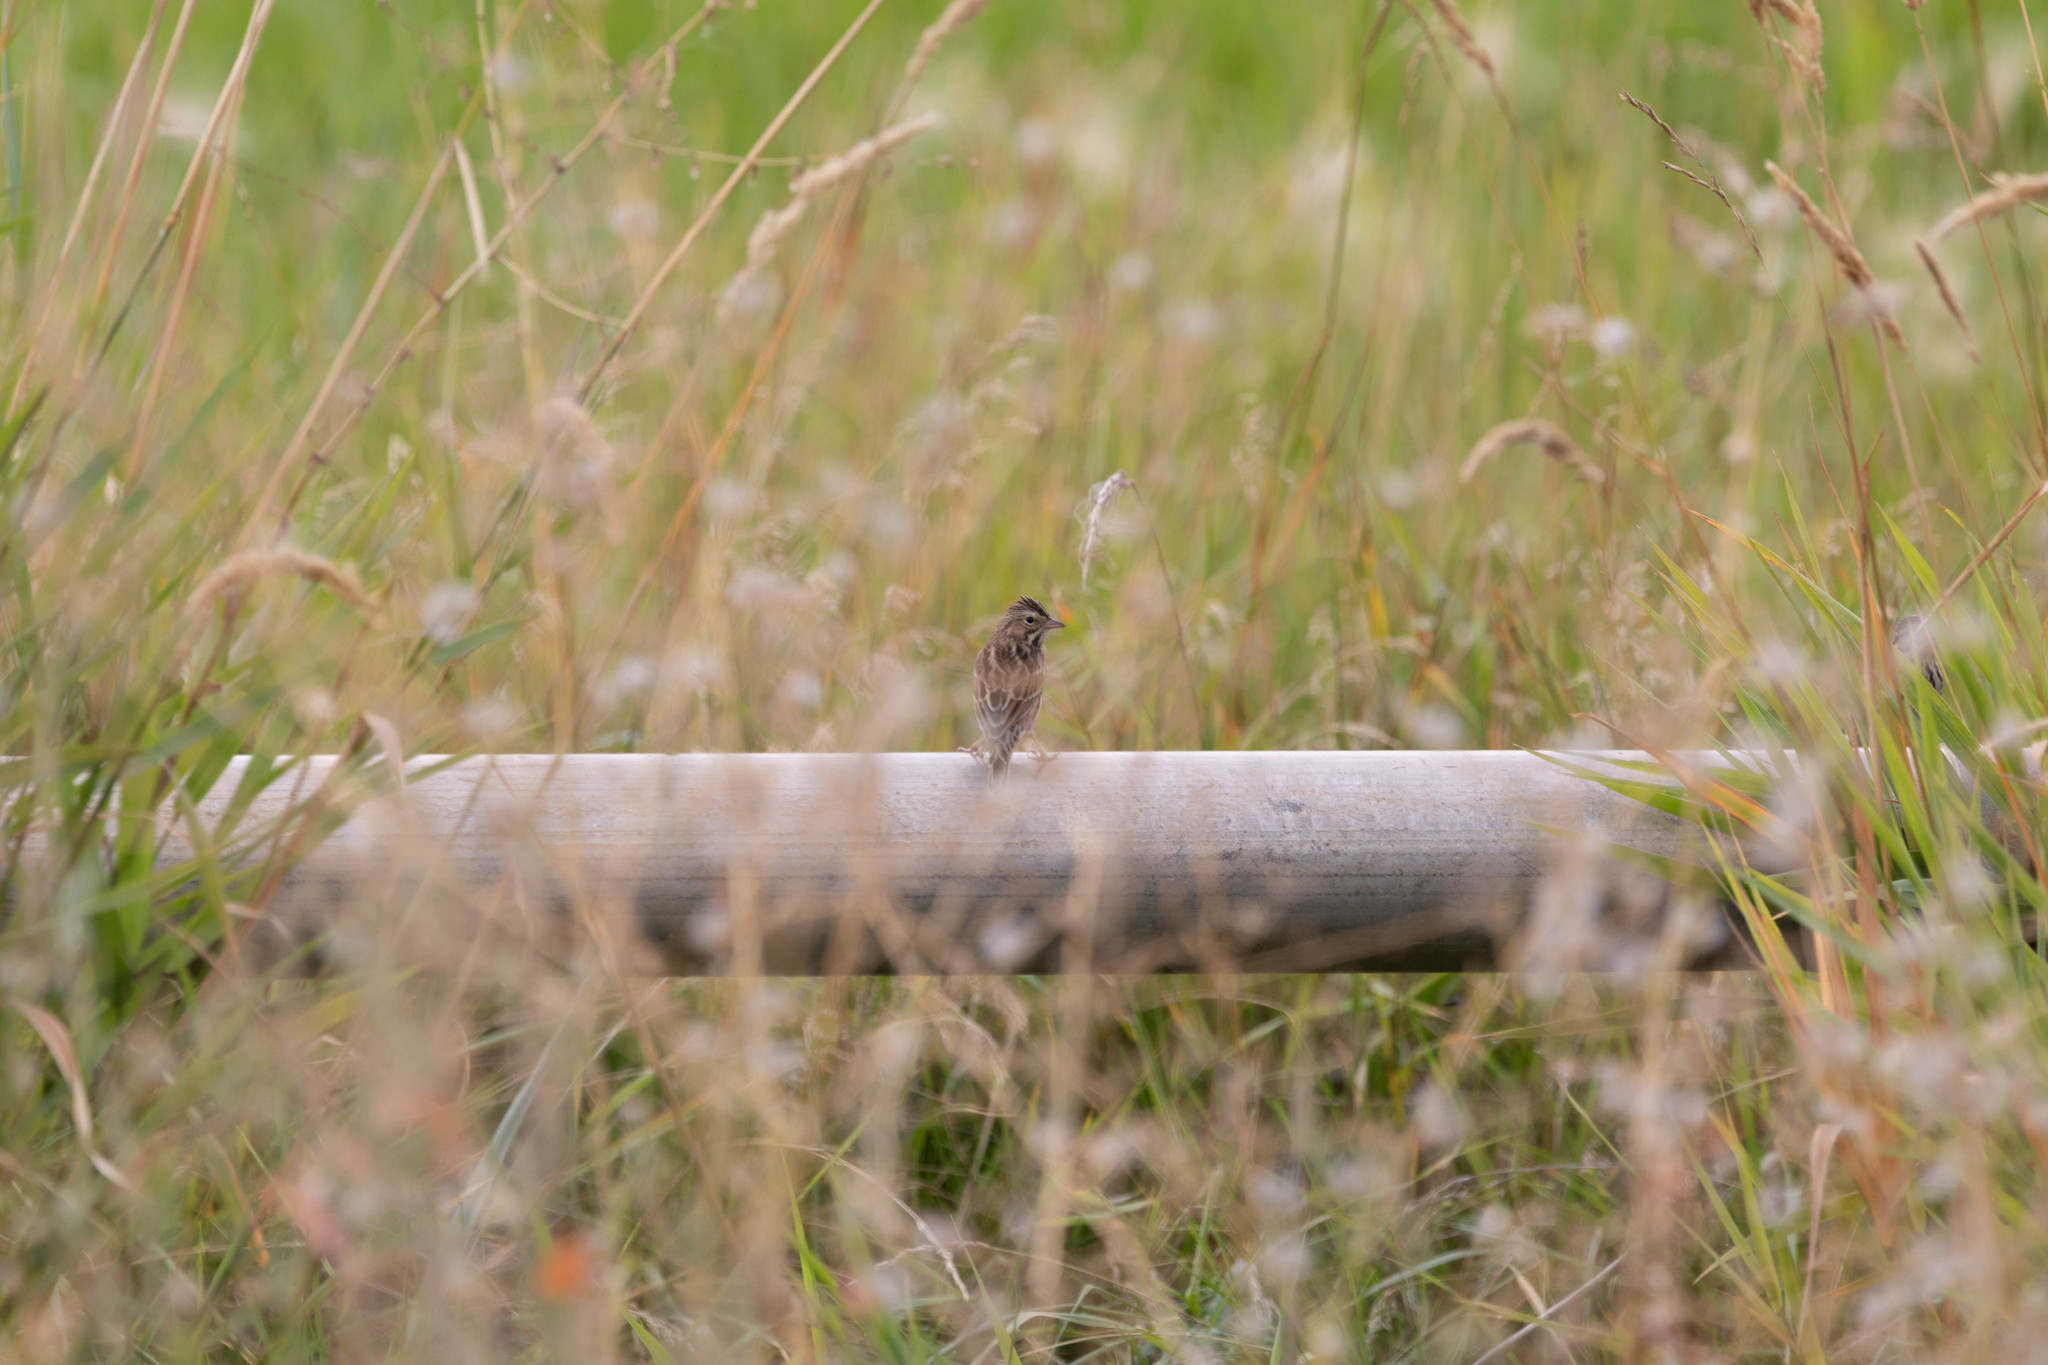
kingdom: Animalia
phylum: Chordata
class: Aves
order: Passeriformes
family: Passerellidae
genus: Passerculus
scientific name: Passerculus sandwichensis
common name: Savannah sparrow
